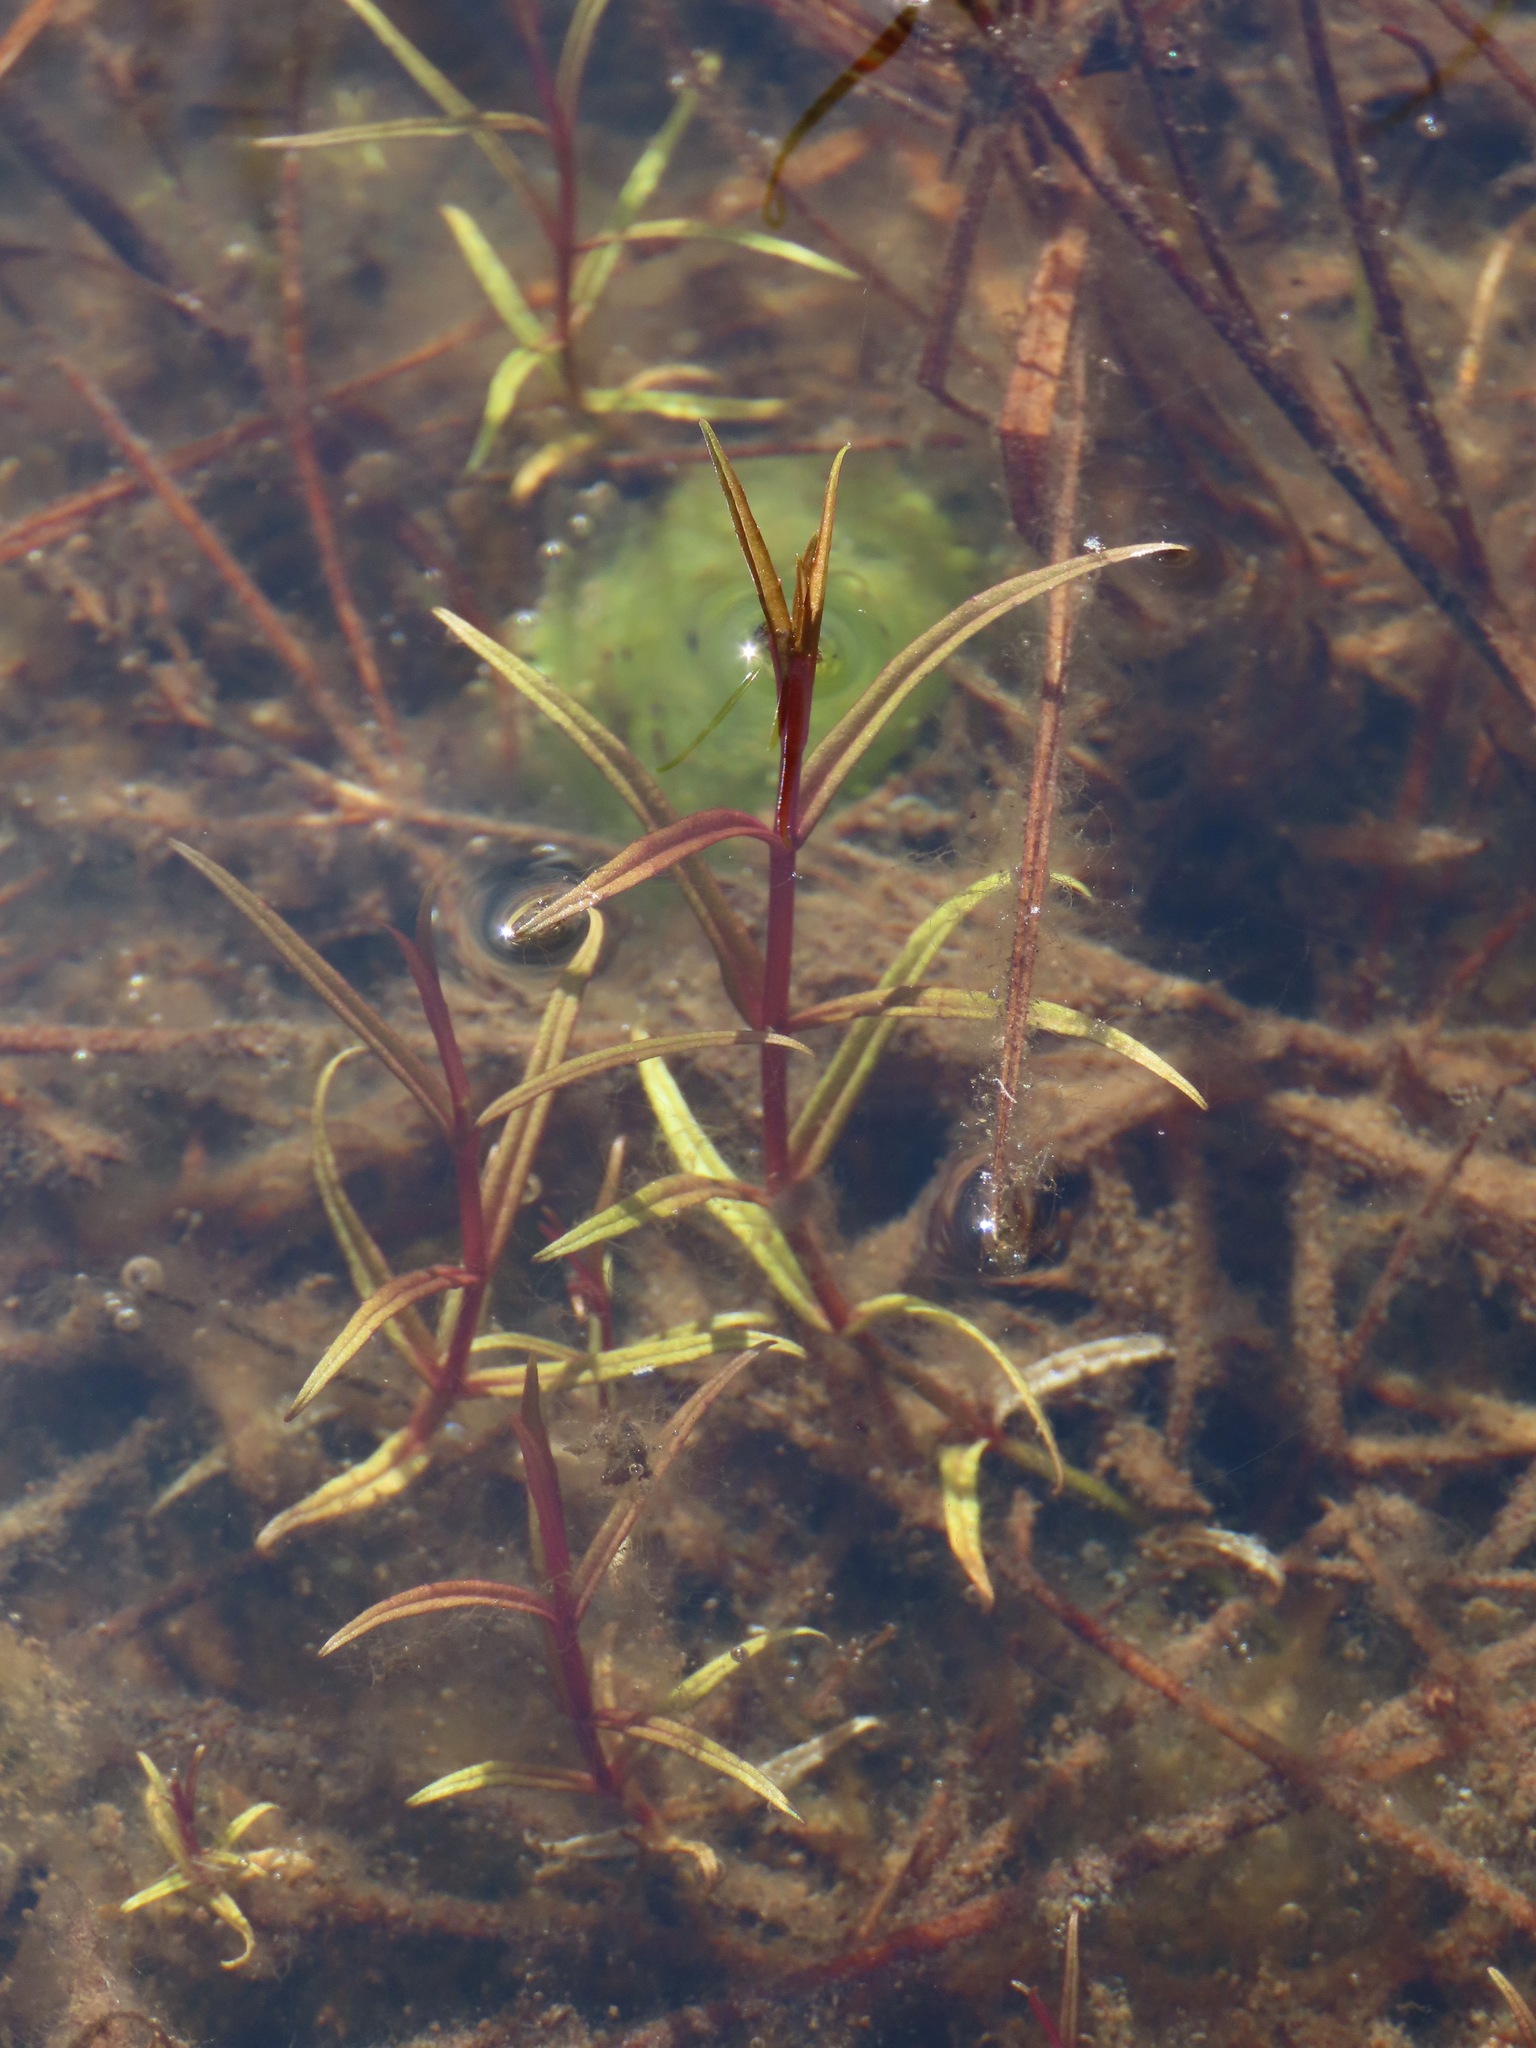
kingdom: Plantae
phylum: Tracheophyta
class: Magnoliopsida
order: Lamiales
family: Plantaginaceae
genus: Veronica
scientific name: Veronica scutellata
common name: Marsh speedwell
